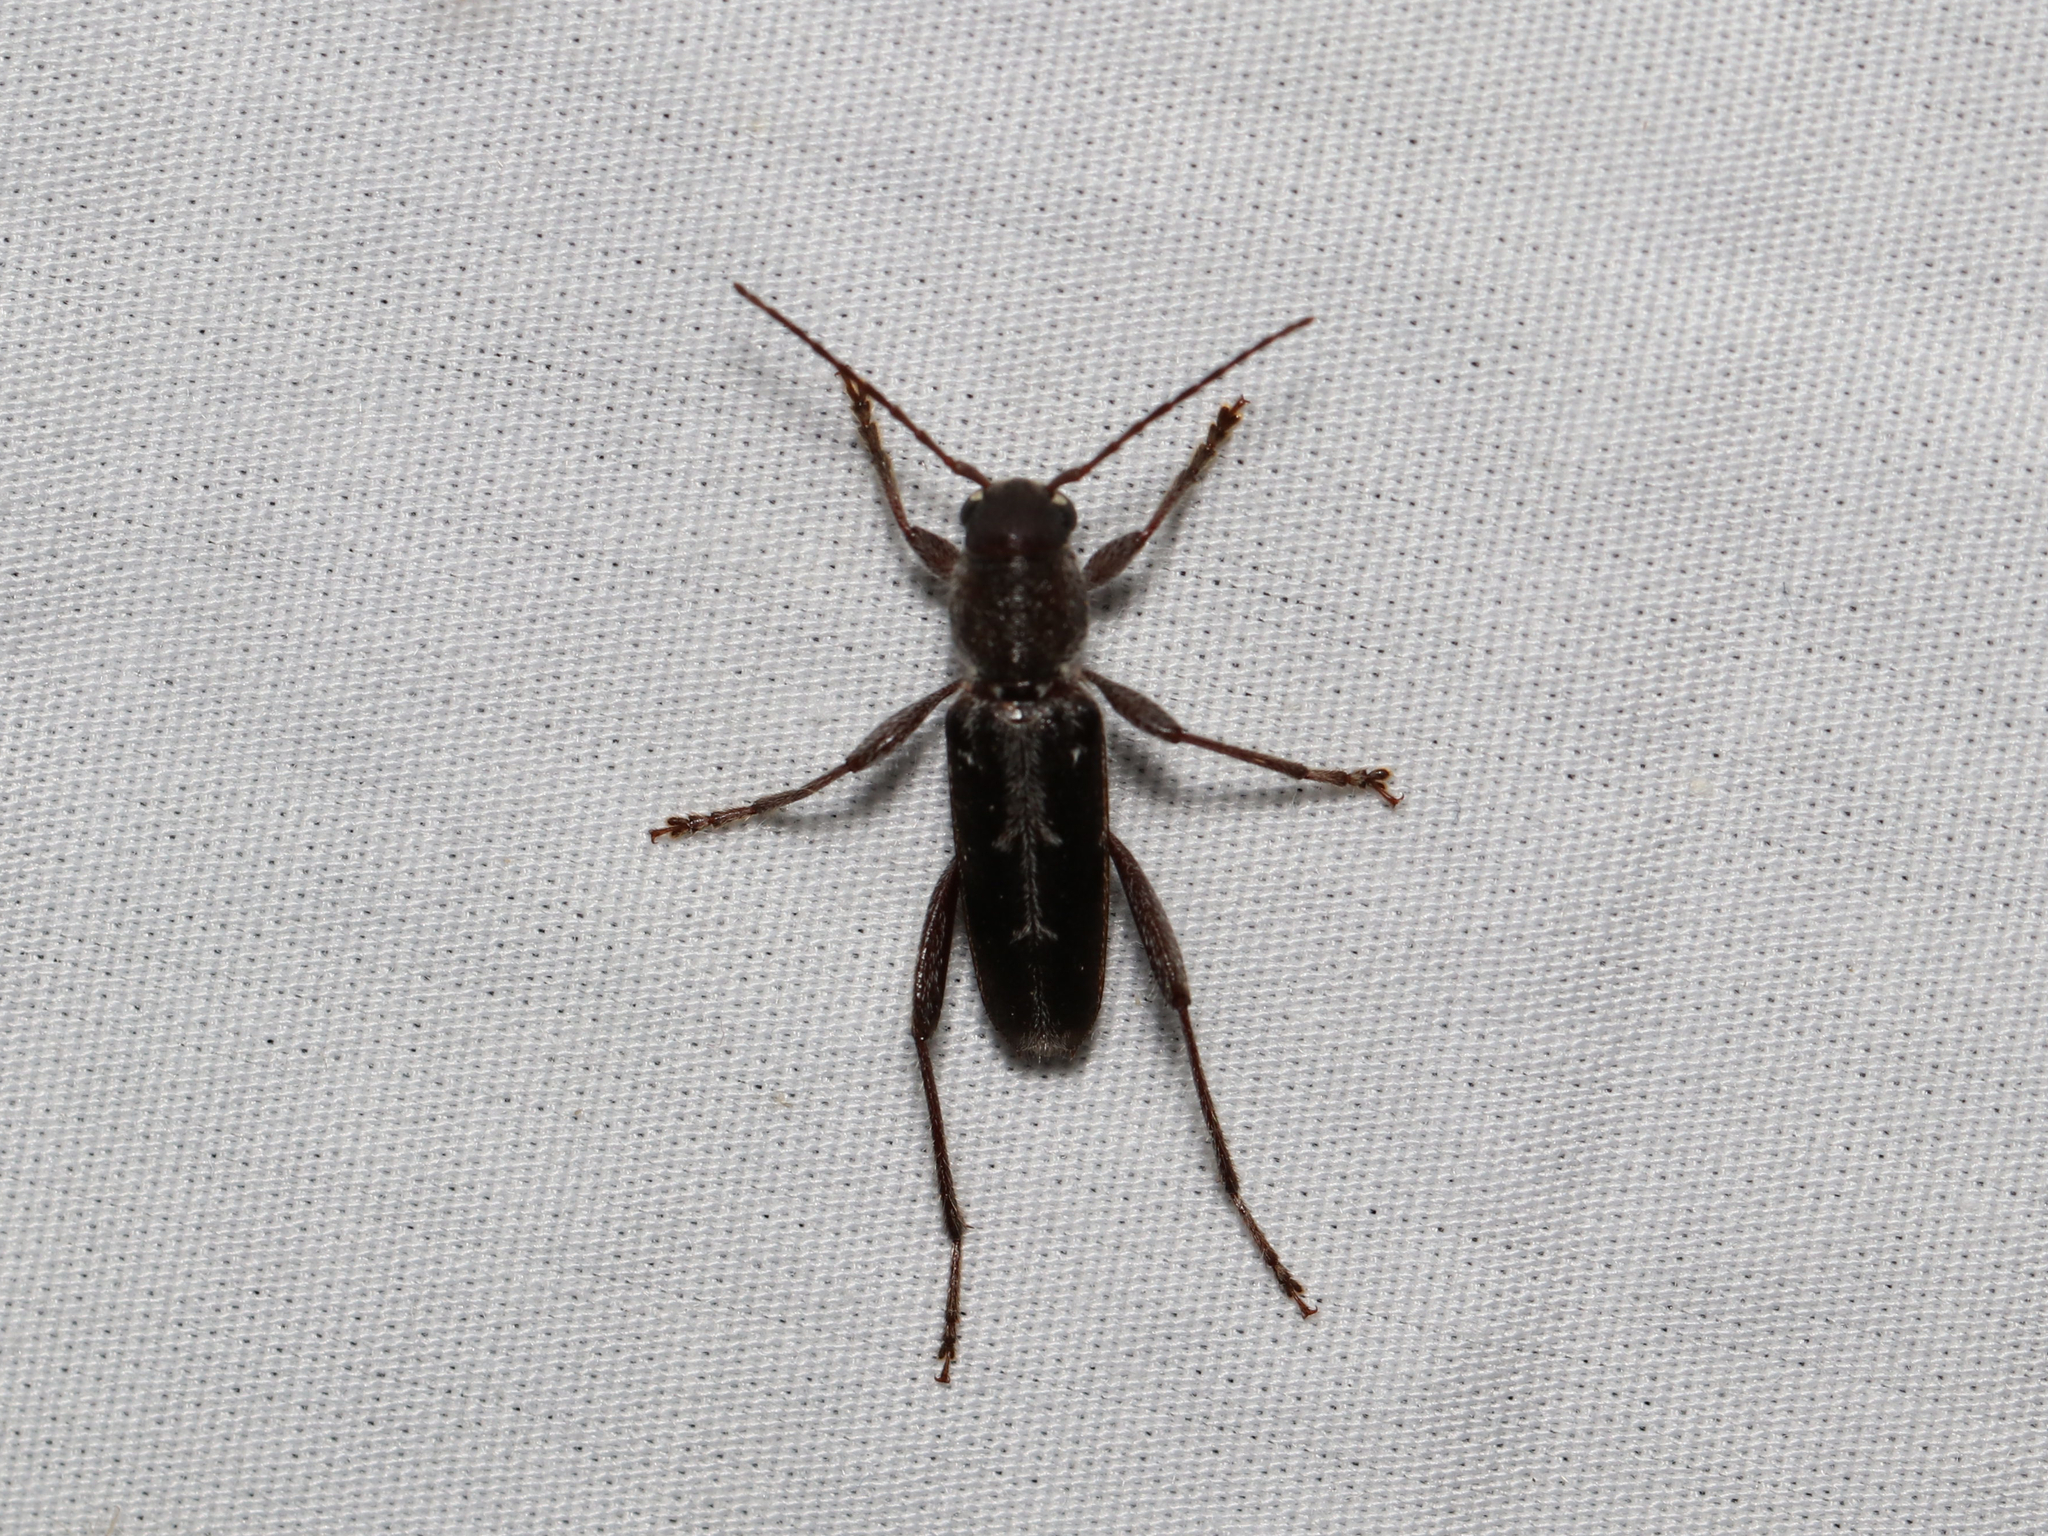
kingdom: Animalia
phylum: Arthropoda
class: Insecta
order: Coleoptera
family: Cerambycidae
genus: Xylotrechus
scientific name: Xylotrechus sagittatus
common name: Arrowhead borer
